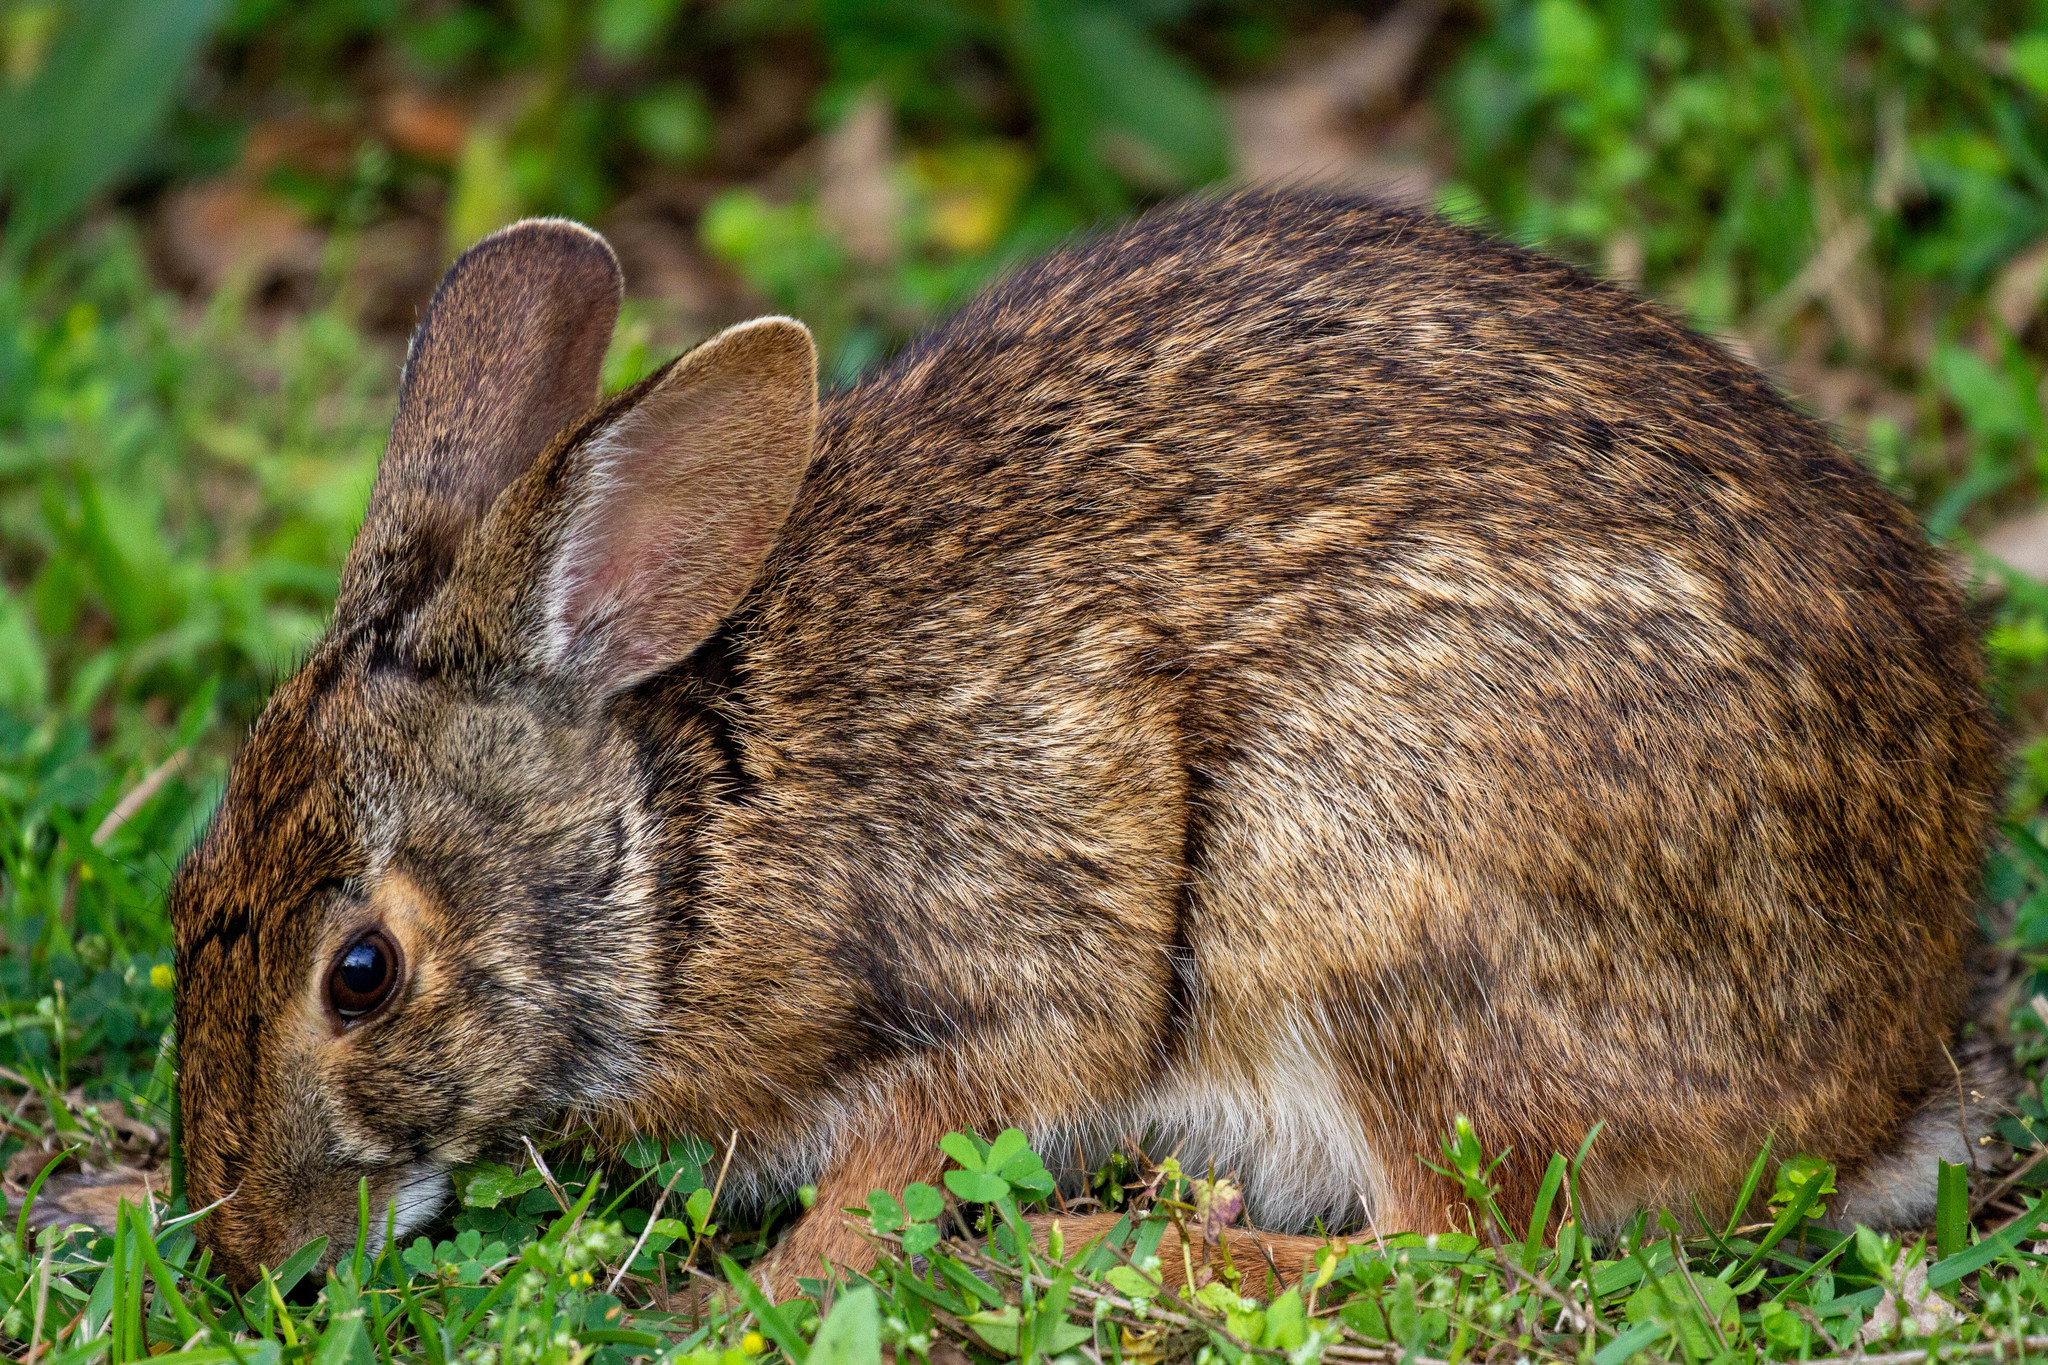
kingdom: Animalia
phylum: Chordata
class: Mammalia
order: Lagomorpha
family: Leporidae
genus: Sylvilagus
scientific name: Sylvilagus aquaticus
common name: Swamp rabbit
